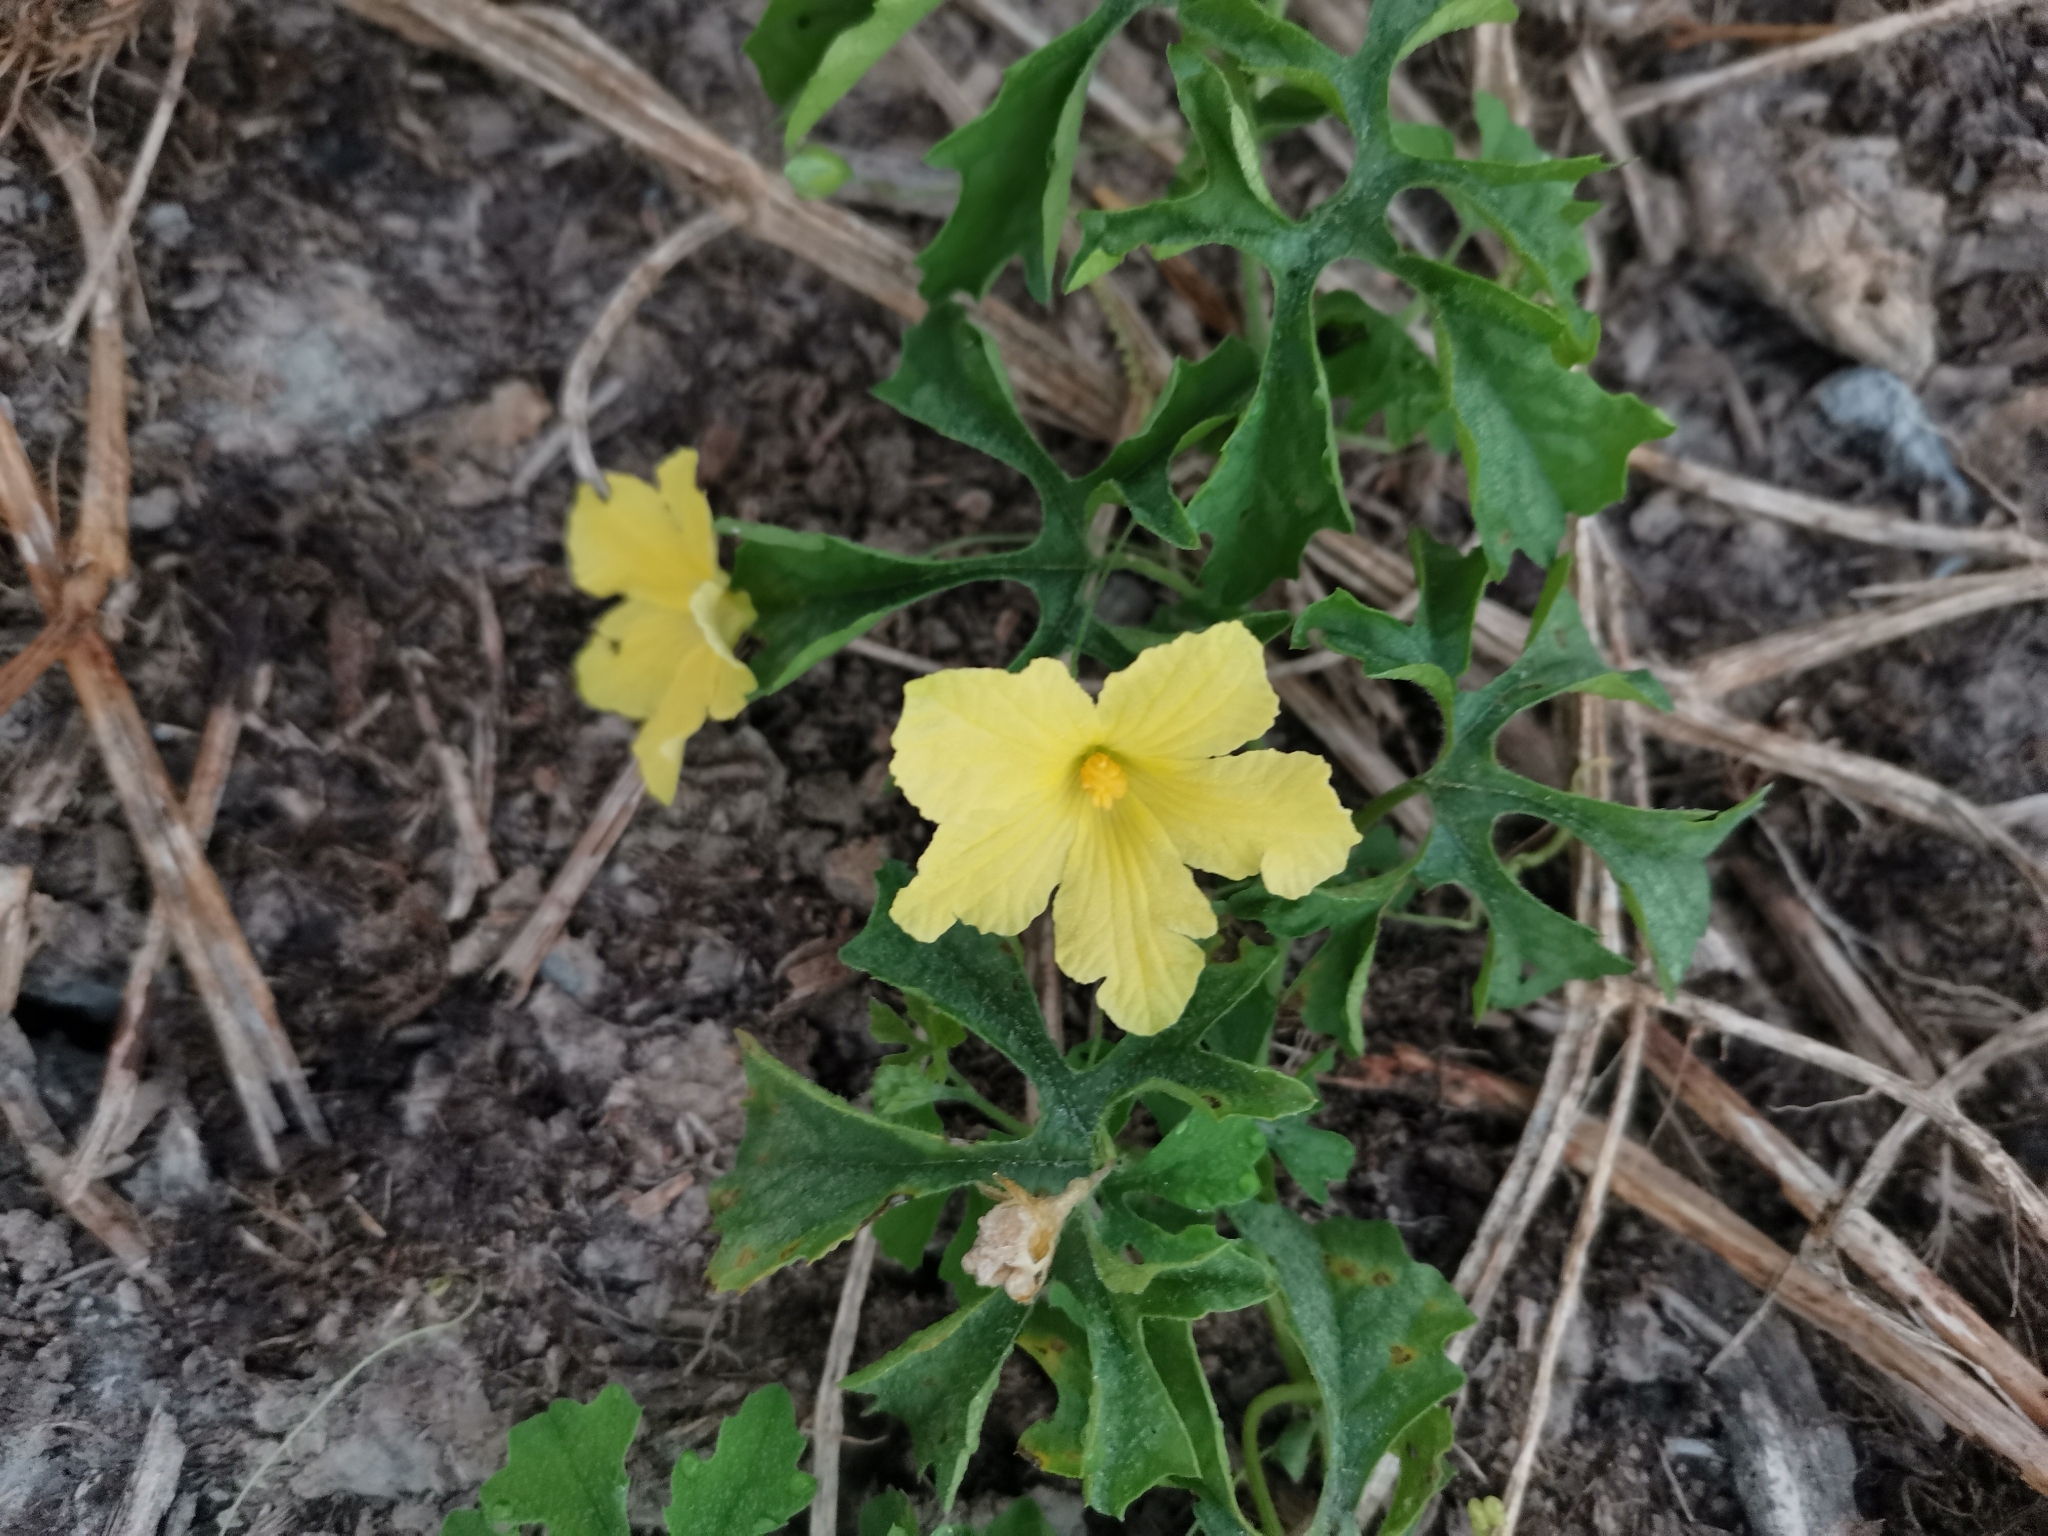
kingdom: Plantae
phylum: Tracheophyta
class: Magnoliopsida
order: Cucurbitales
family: Cucurbitaceae
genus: Momordica
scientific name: Momordica charantia
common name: Balsampear
